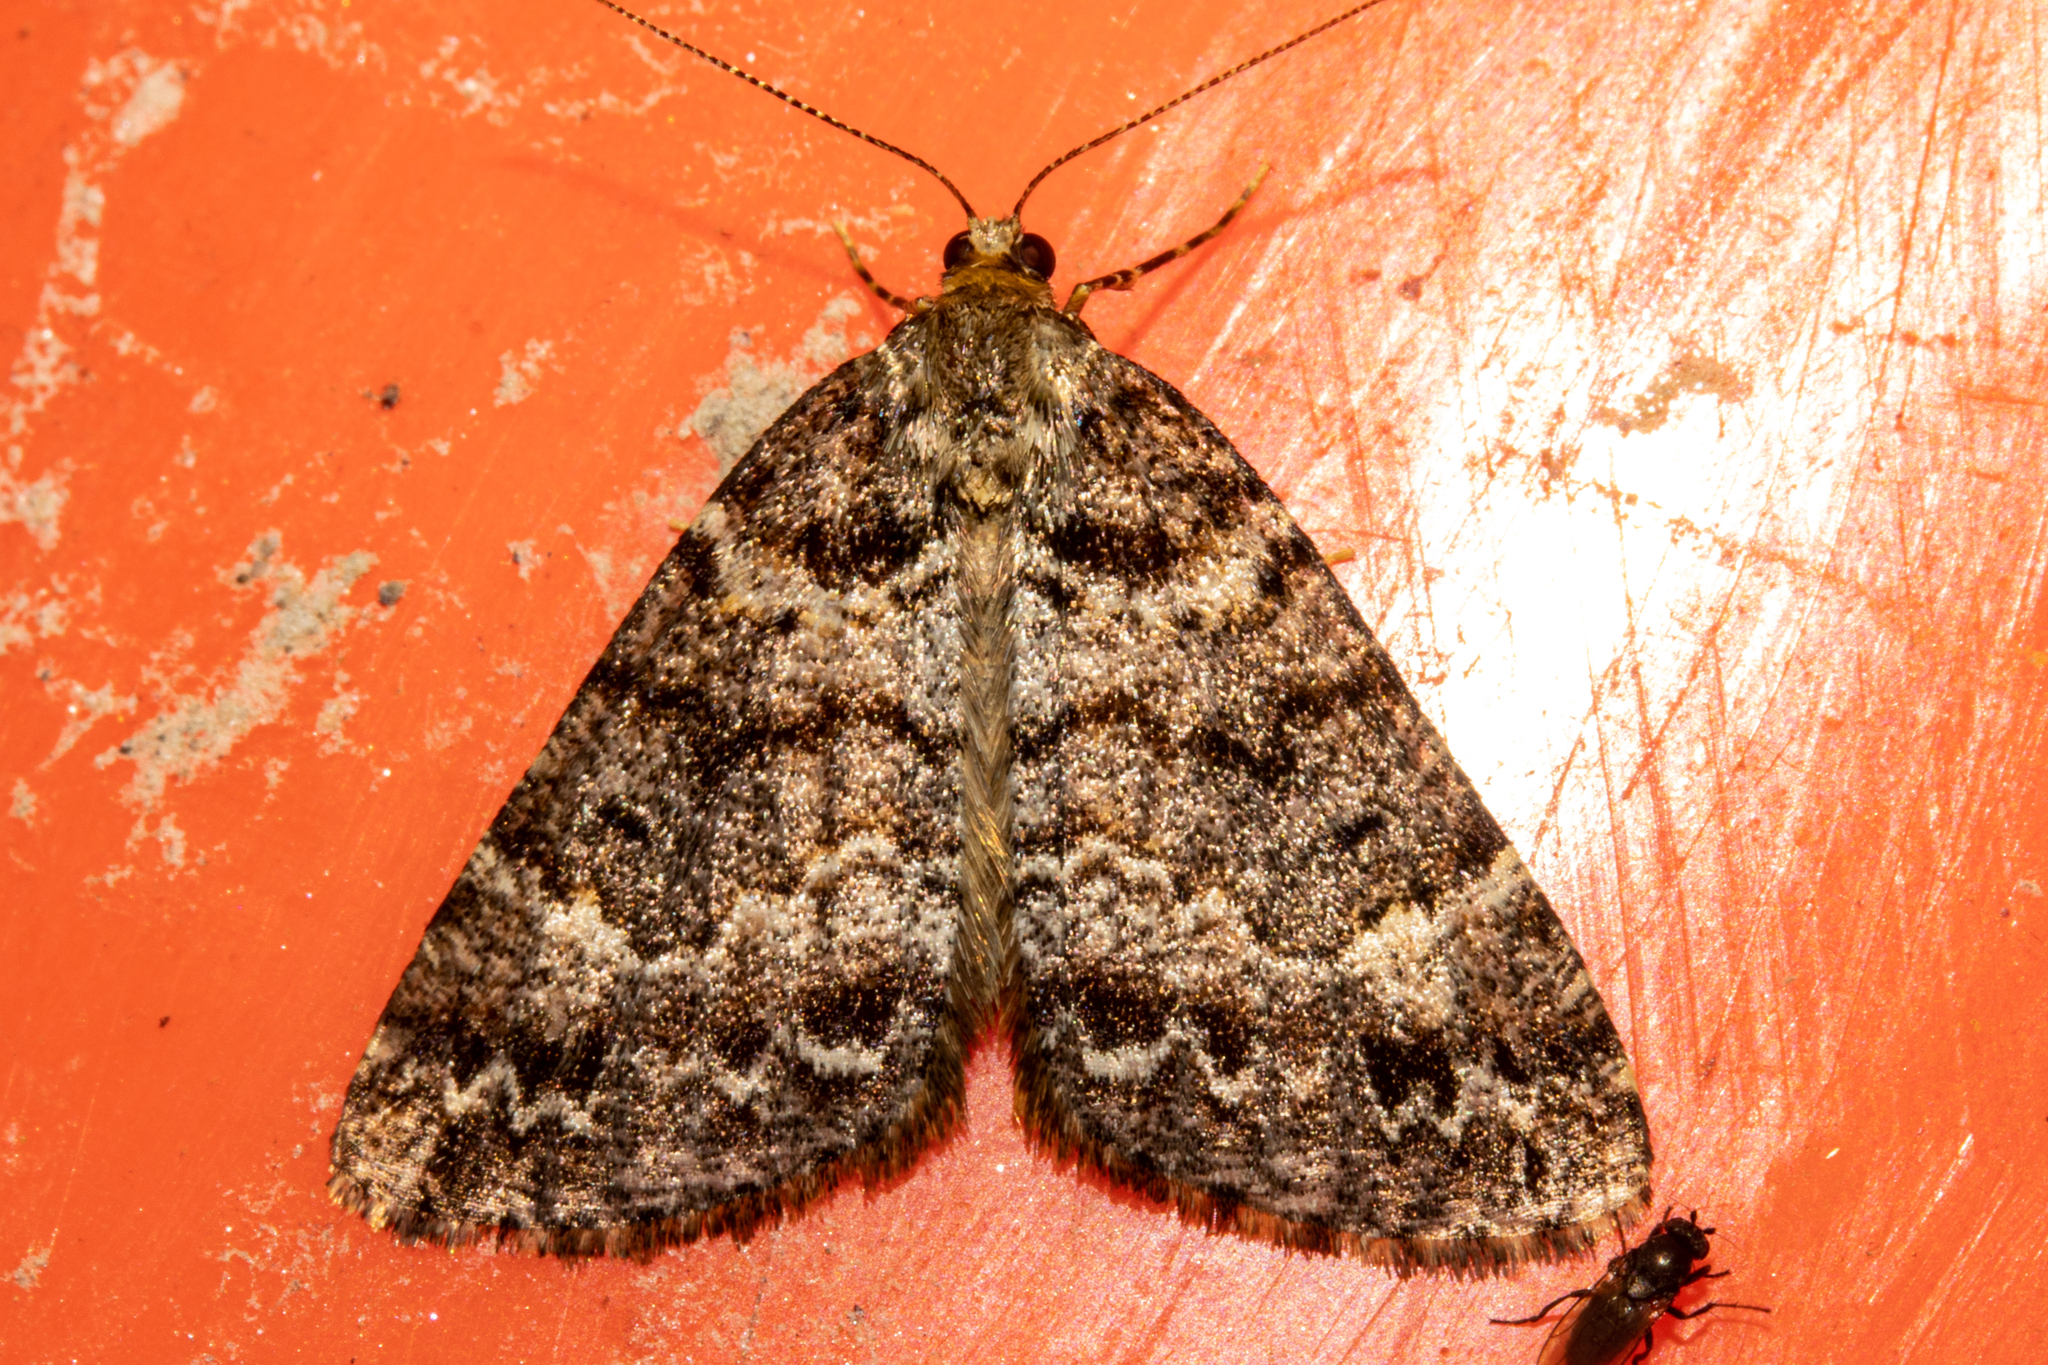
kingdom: Animalia
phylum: Arthropoda
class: Insecta
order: Lepidoptera
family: Geometridae
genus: Pseudocoremia
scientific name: Pseudocoremia productata
